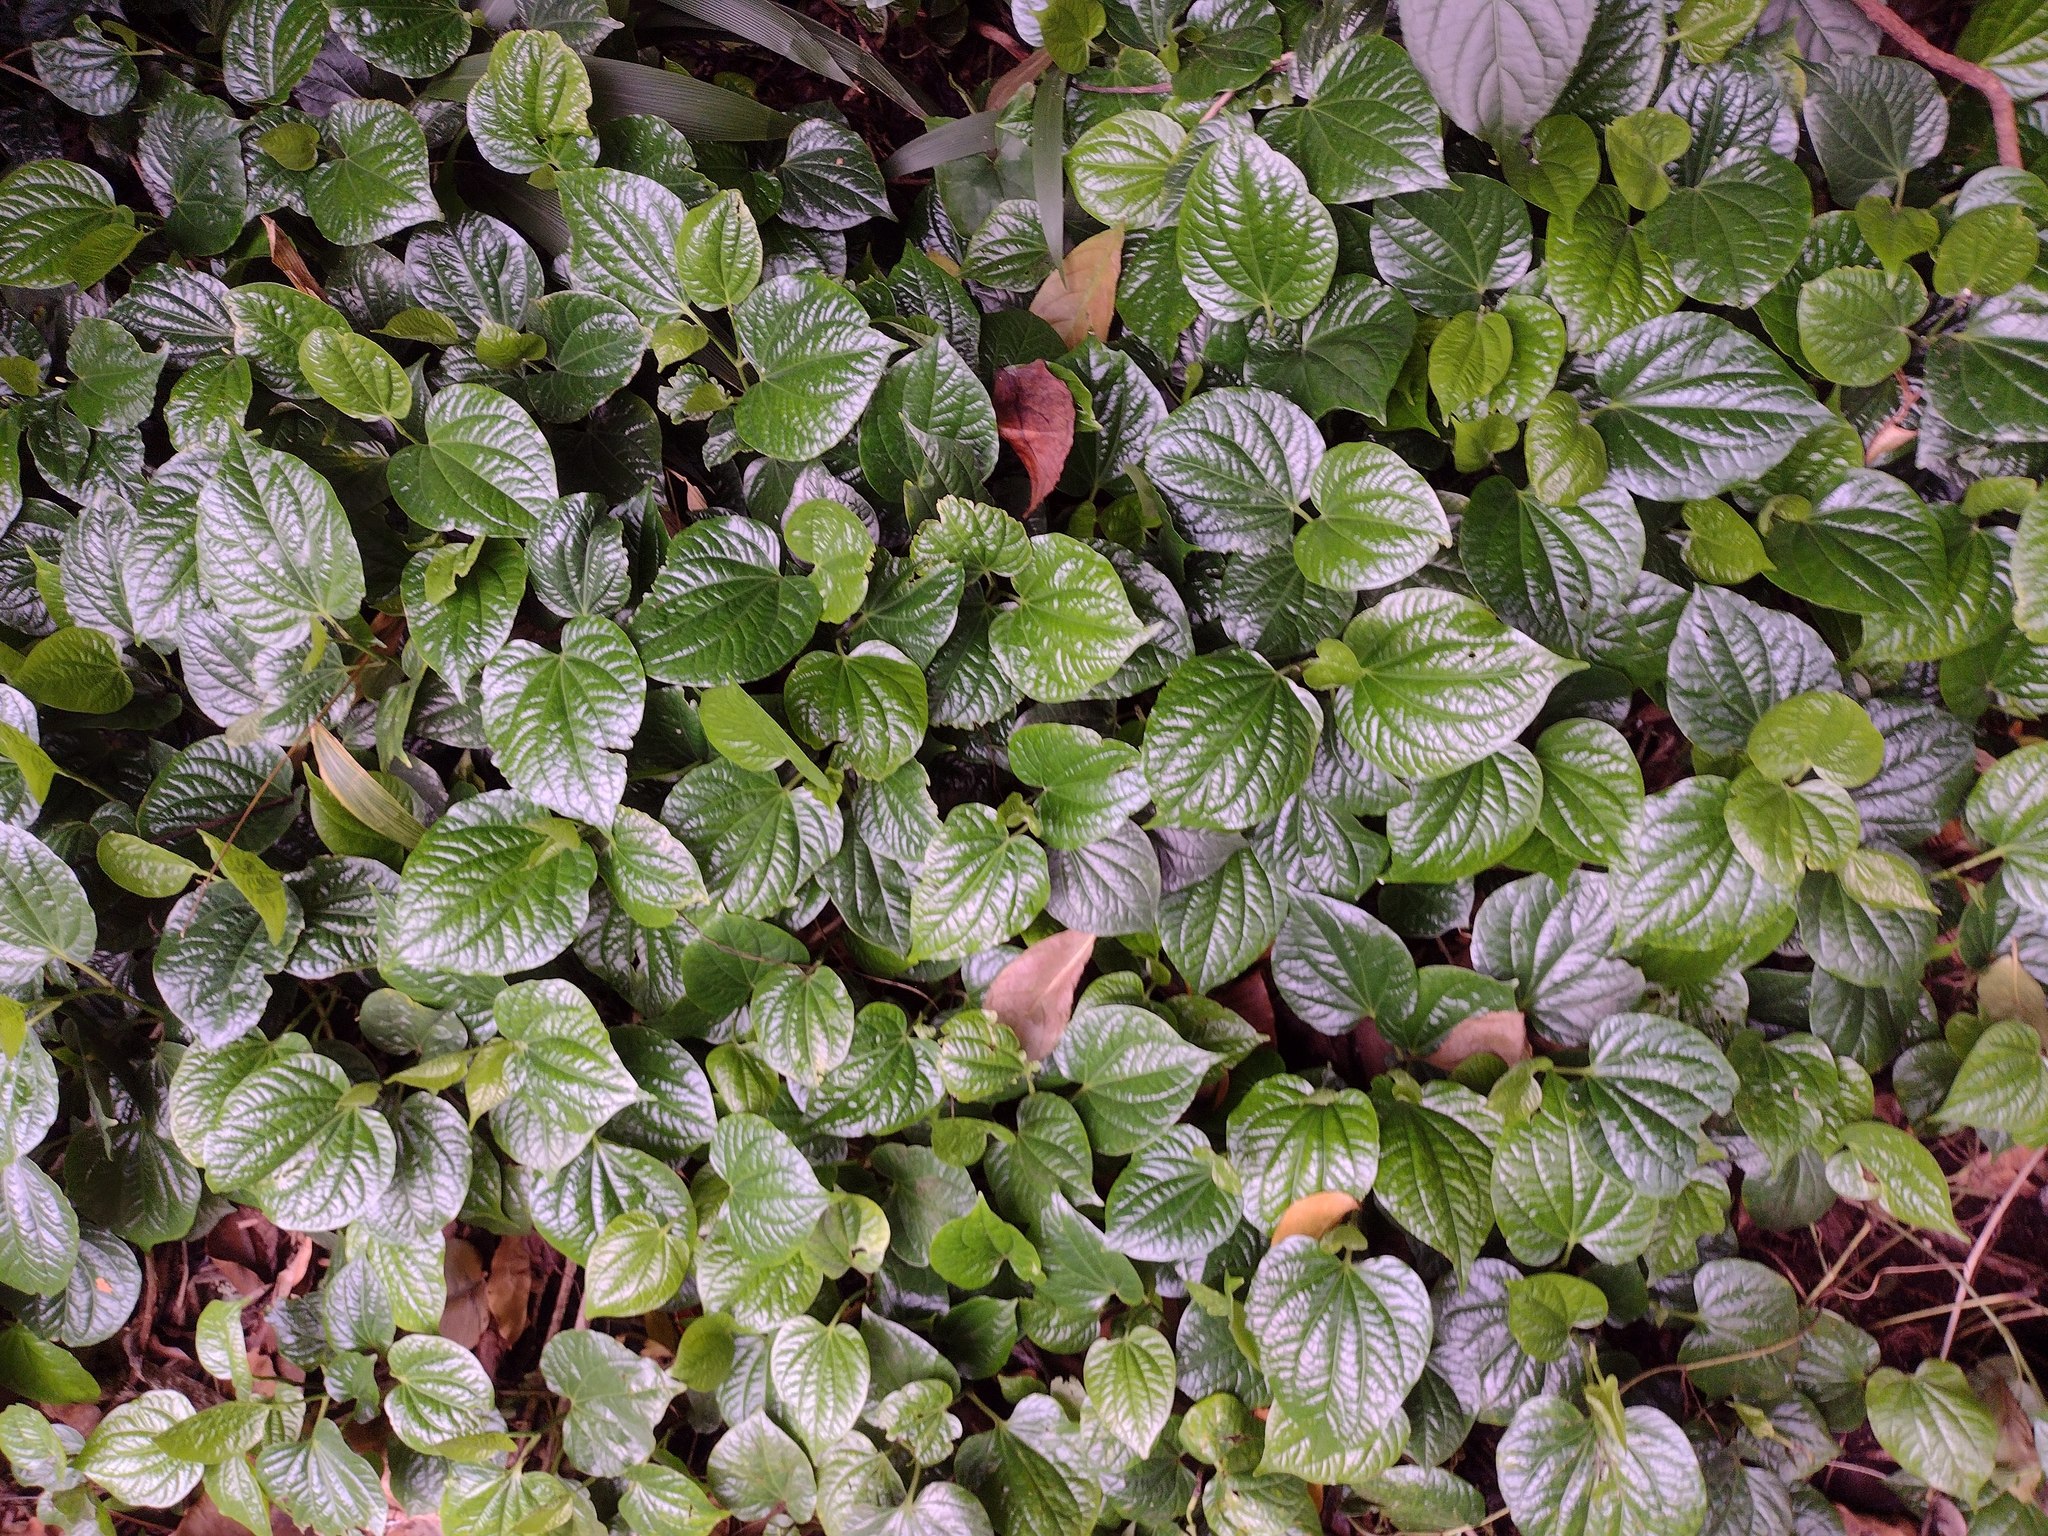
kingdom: Plantae
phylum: Tracheophyta
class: Magnoliopsida
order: Piperales
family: Piperaceae
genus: Piper
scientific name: Piper sarmentosum
